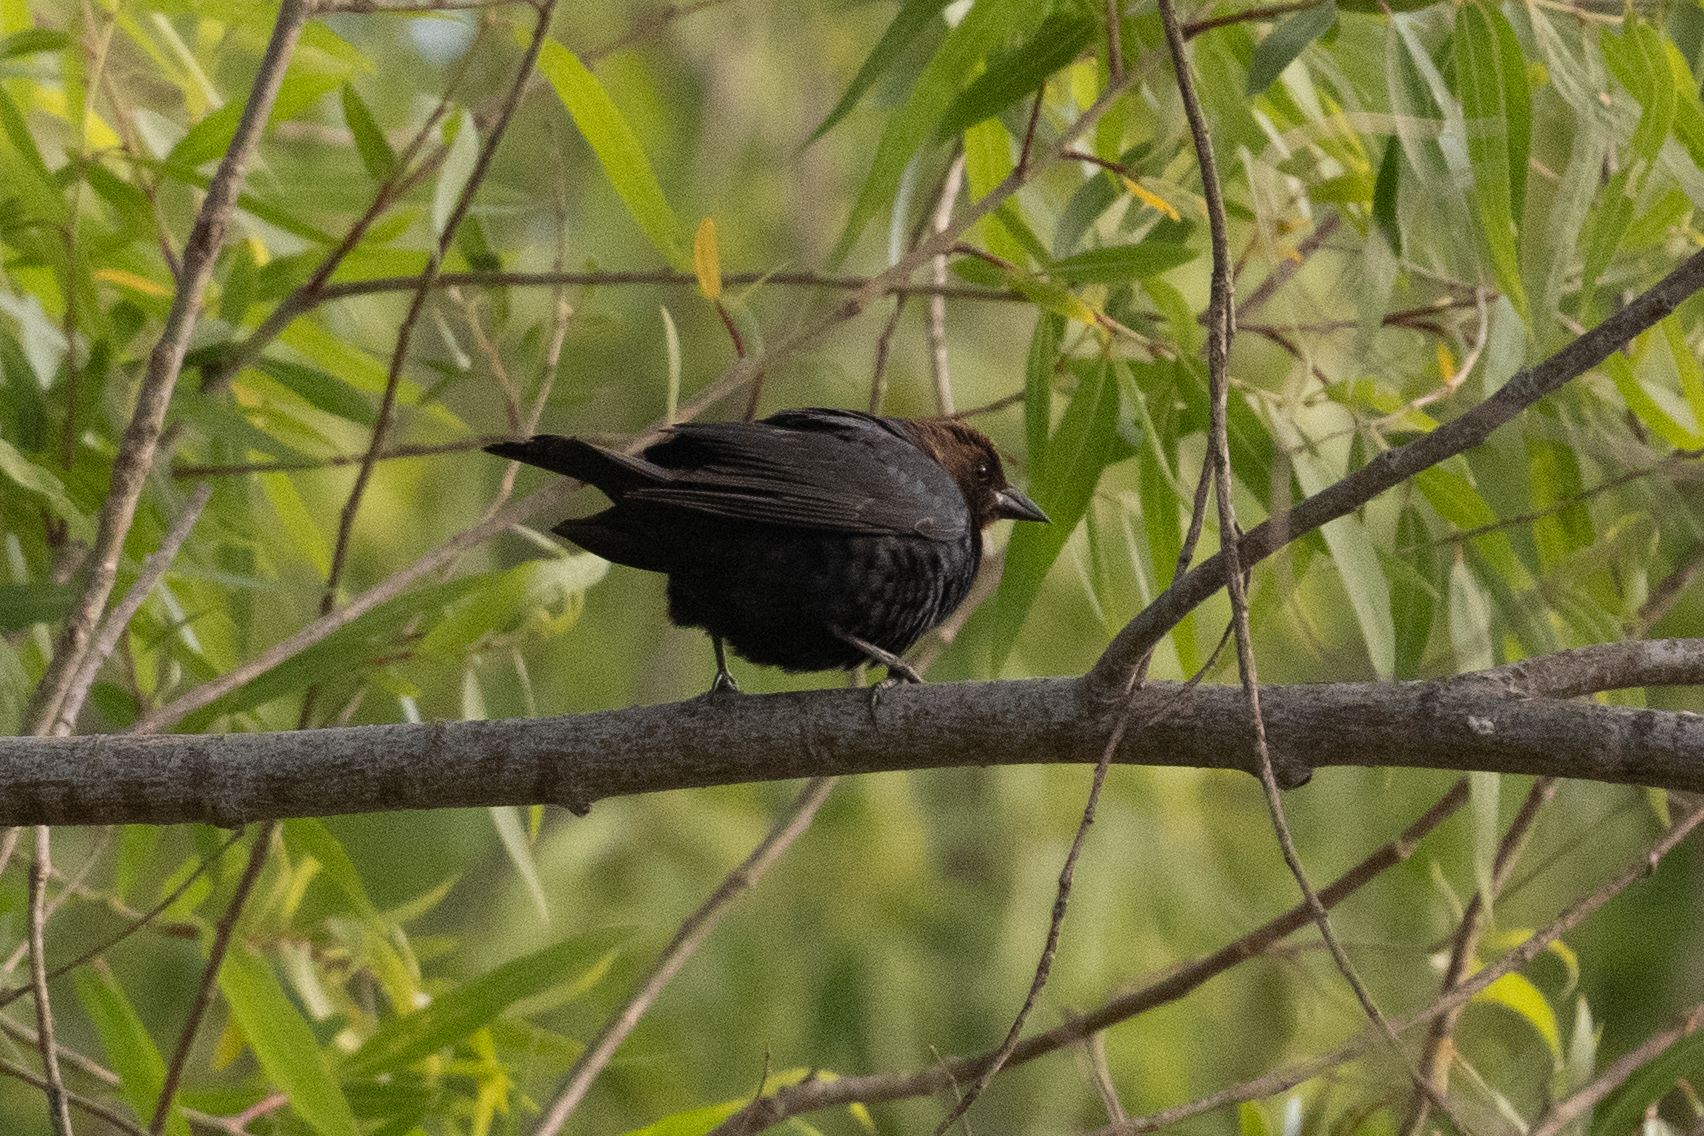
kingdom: Animalia
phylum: Chordata
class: Aves
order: Passeriformes
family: Icteridae
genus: Molothrus
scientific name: Molothrus ater
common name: Brown-headed cowbird
